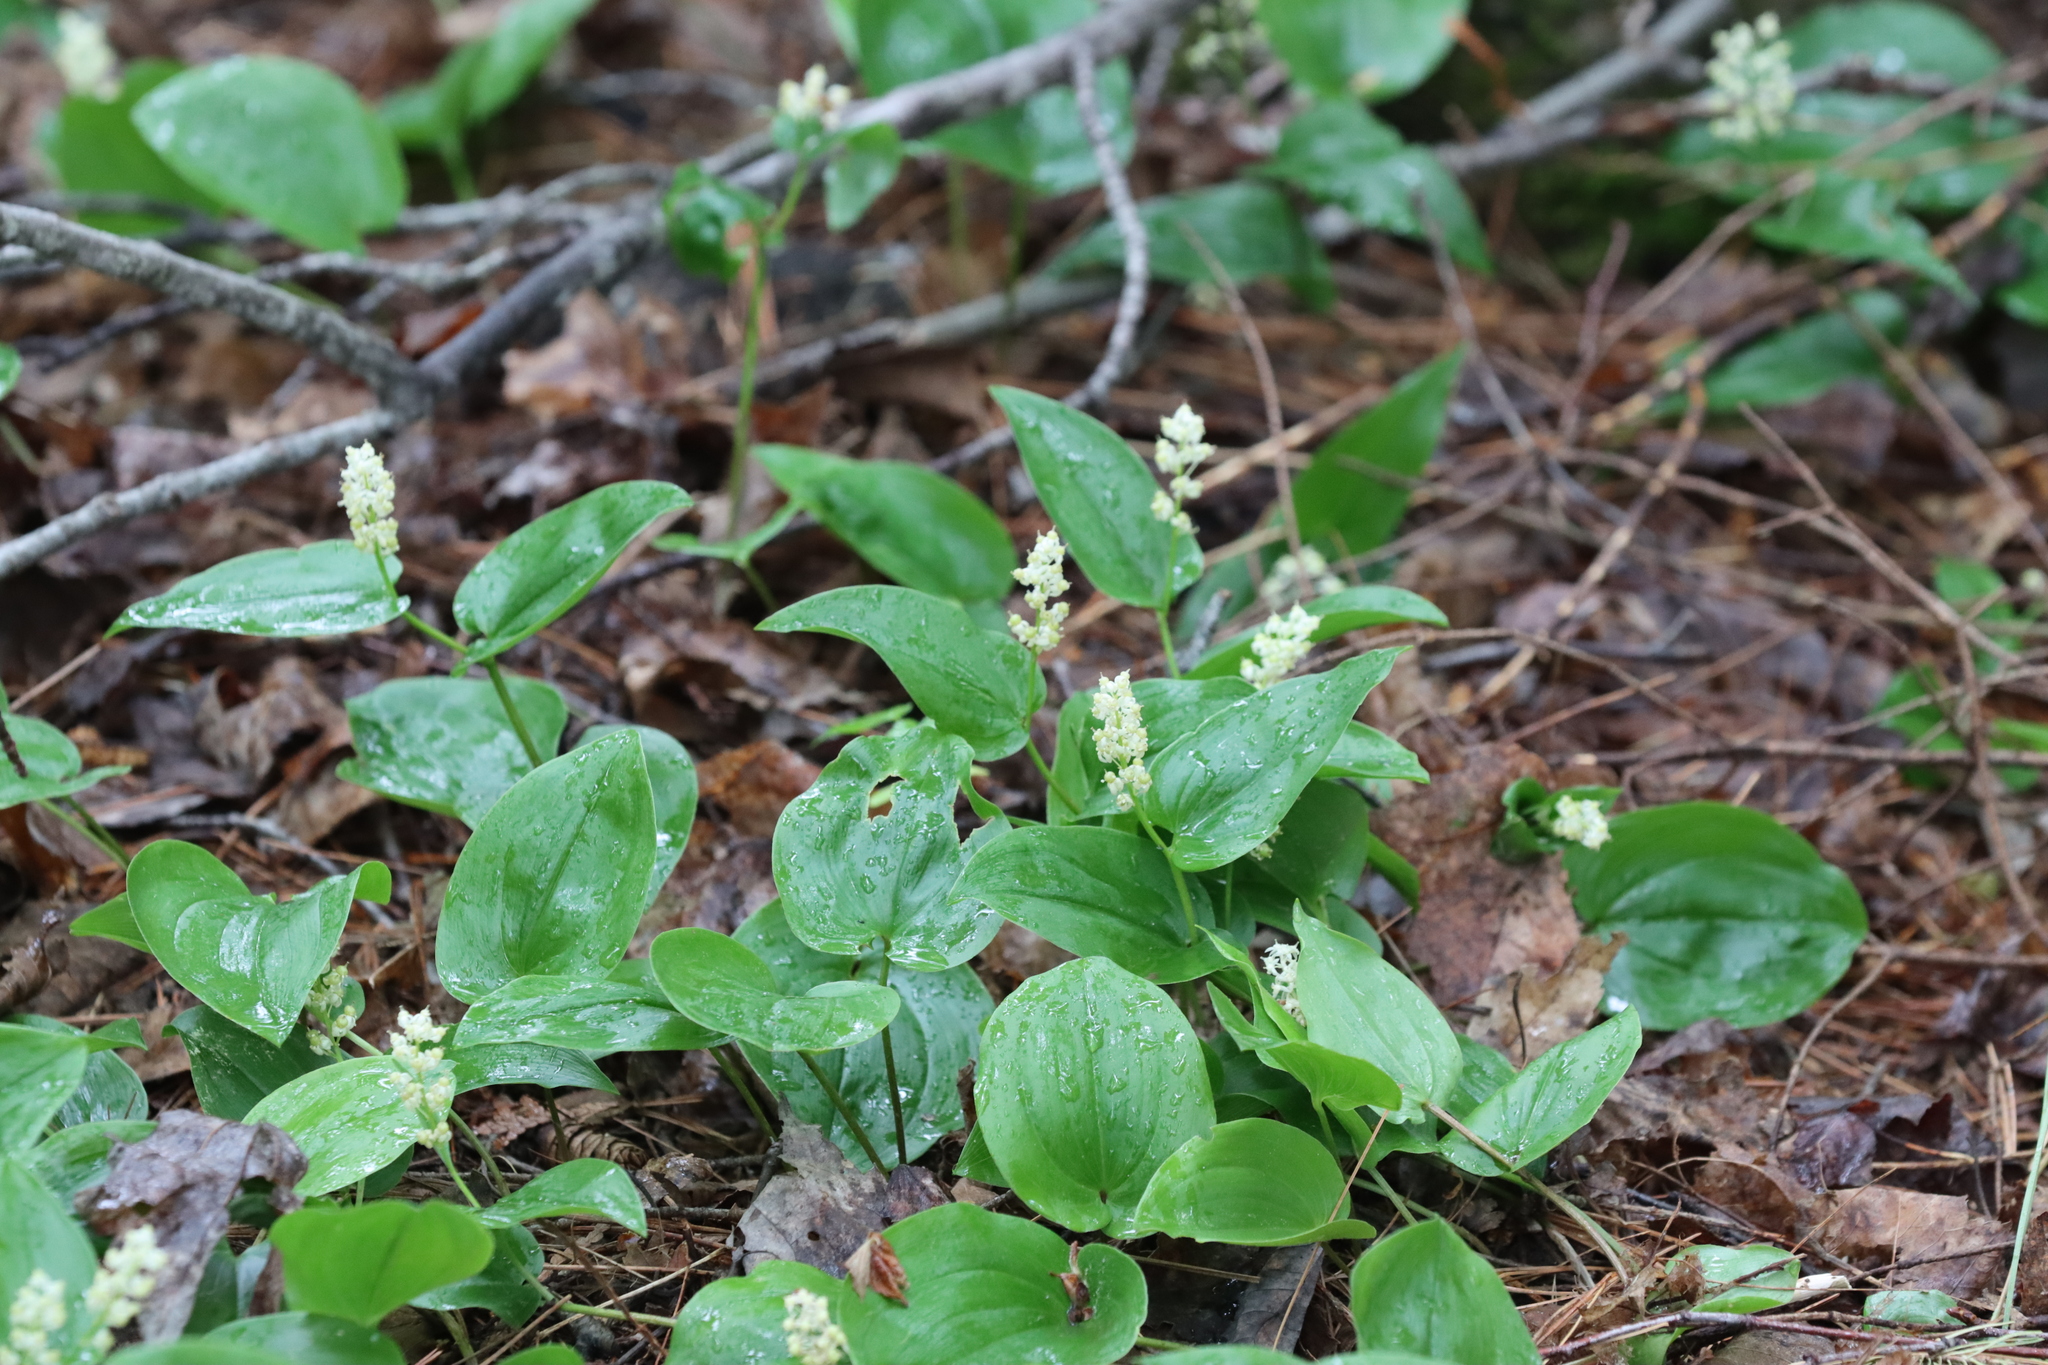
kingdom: Plantae
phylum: Tracheophyta
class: Liliopsida
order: Asparagales
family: Asparagaceae
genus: Maianthemum
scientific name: Maianthemum canadense
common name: False lily-of-the-valley
